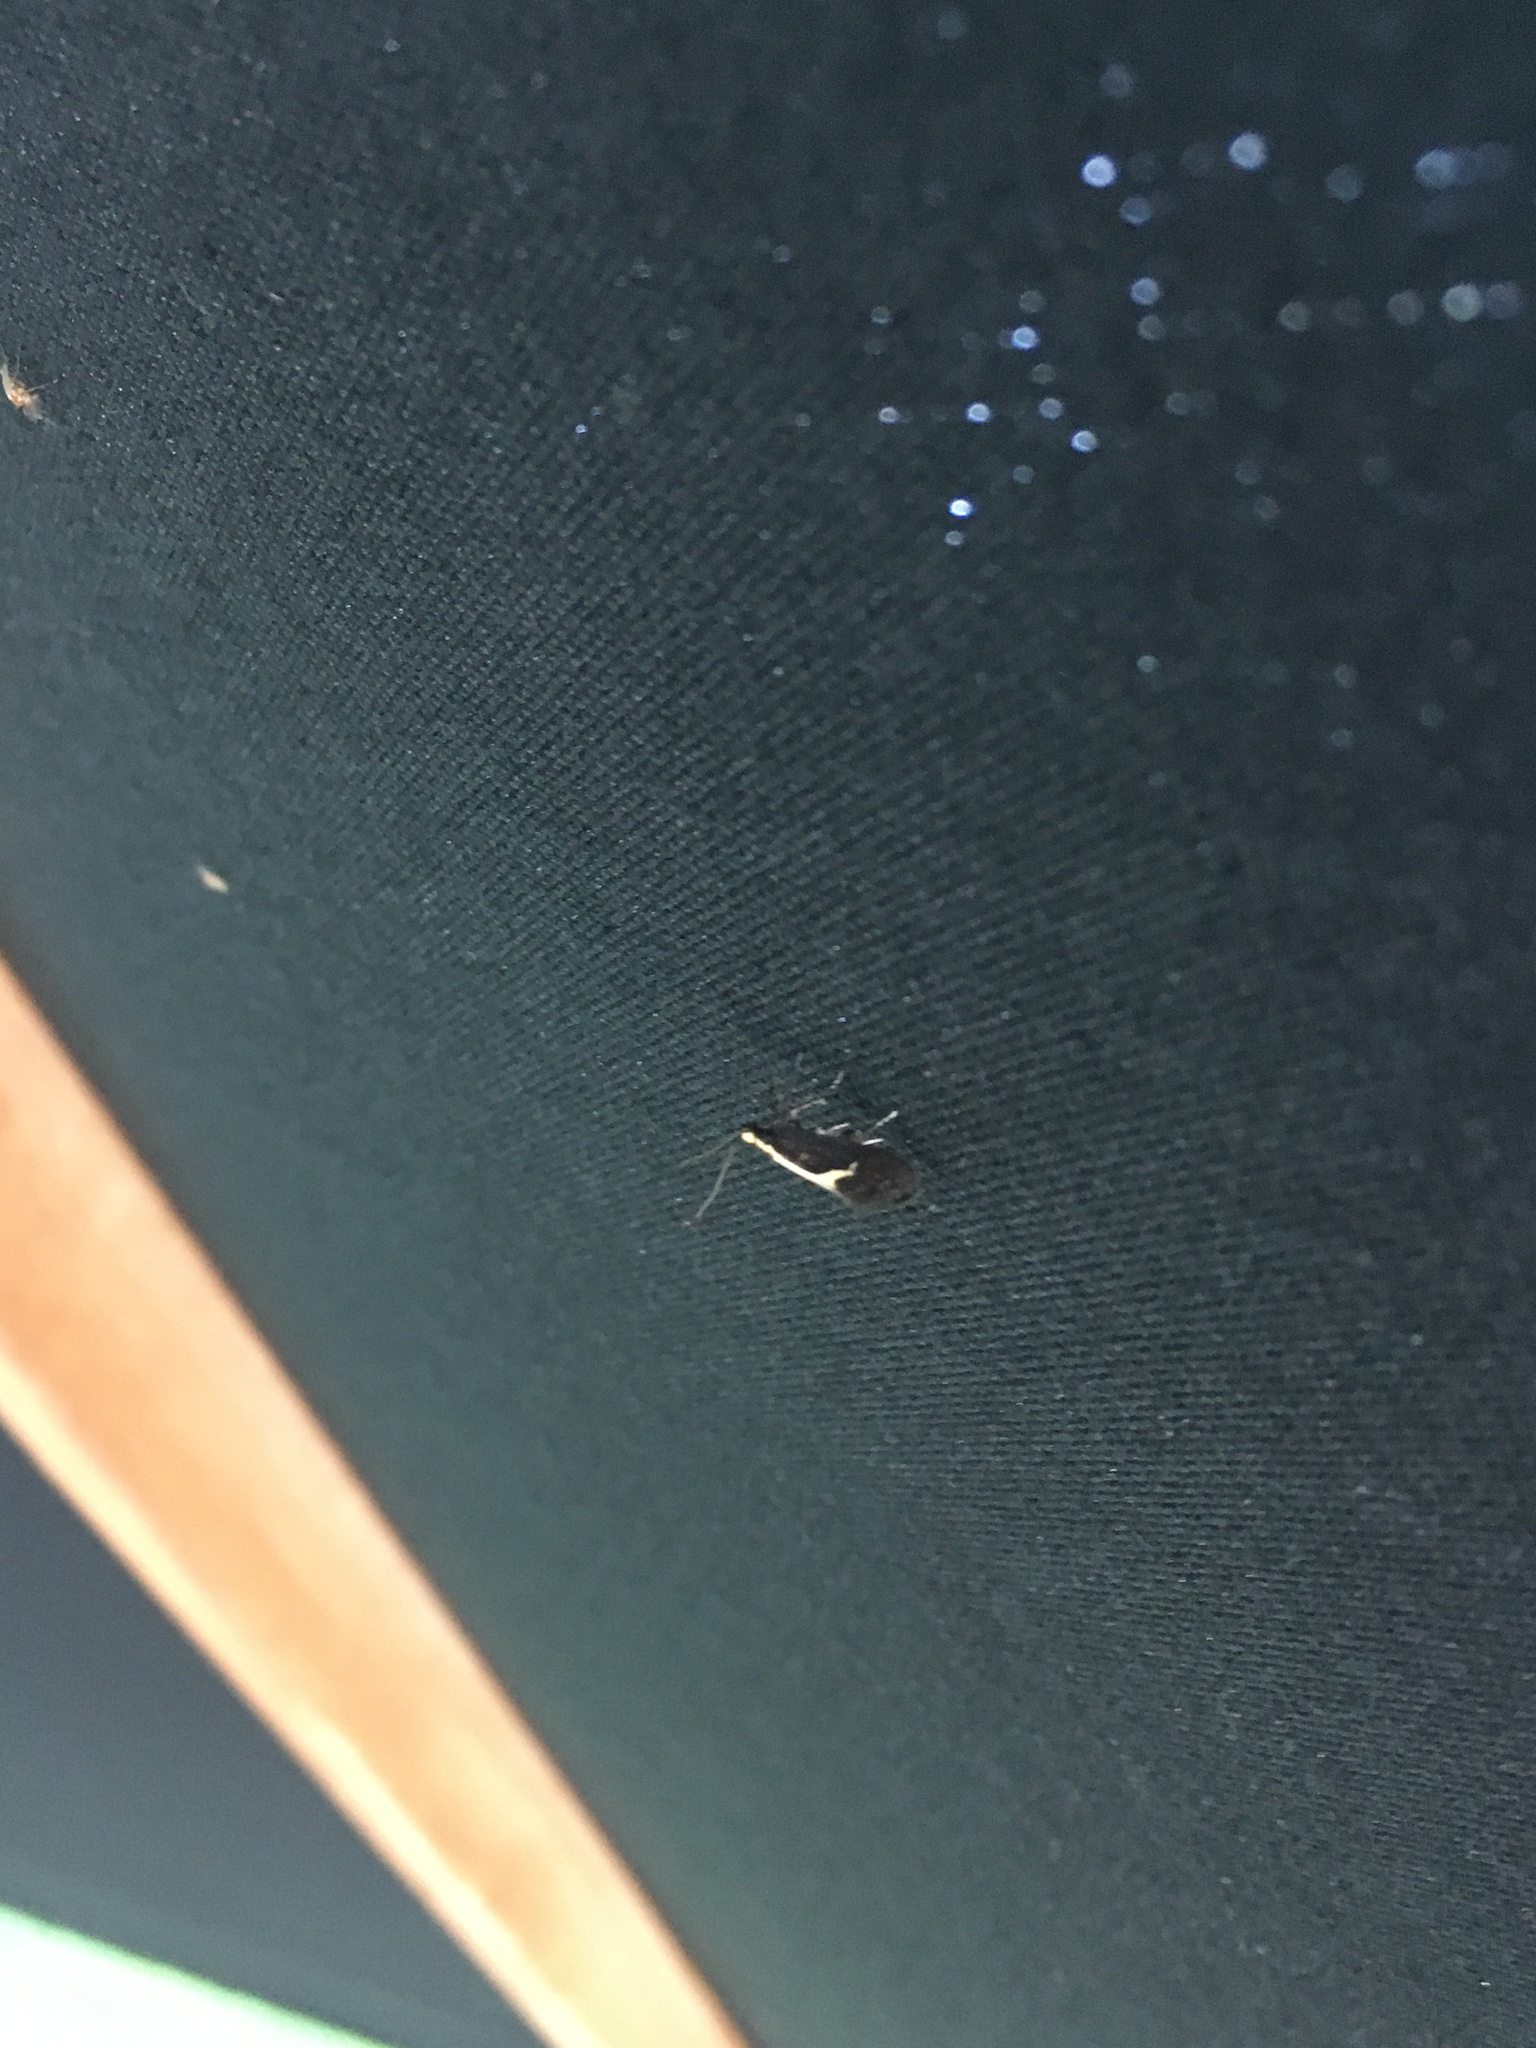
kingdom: Animalia
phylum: Arthropoda
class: Insecta
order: Lepidoptera
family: Oecophoridae
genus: Polix
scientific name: Polix coloradella
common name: Skunk moth
